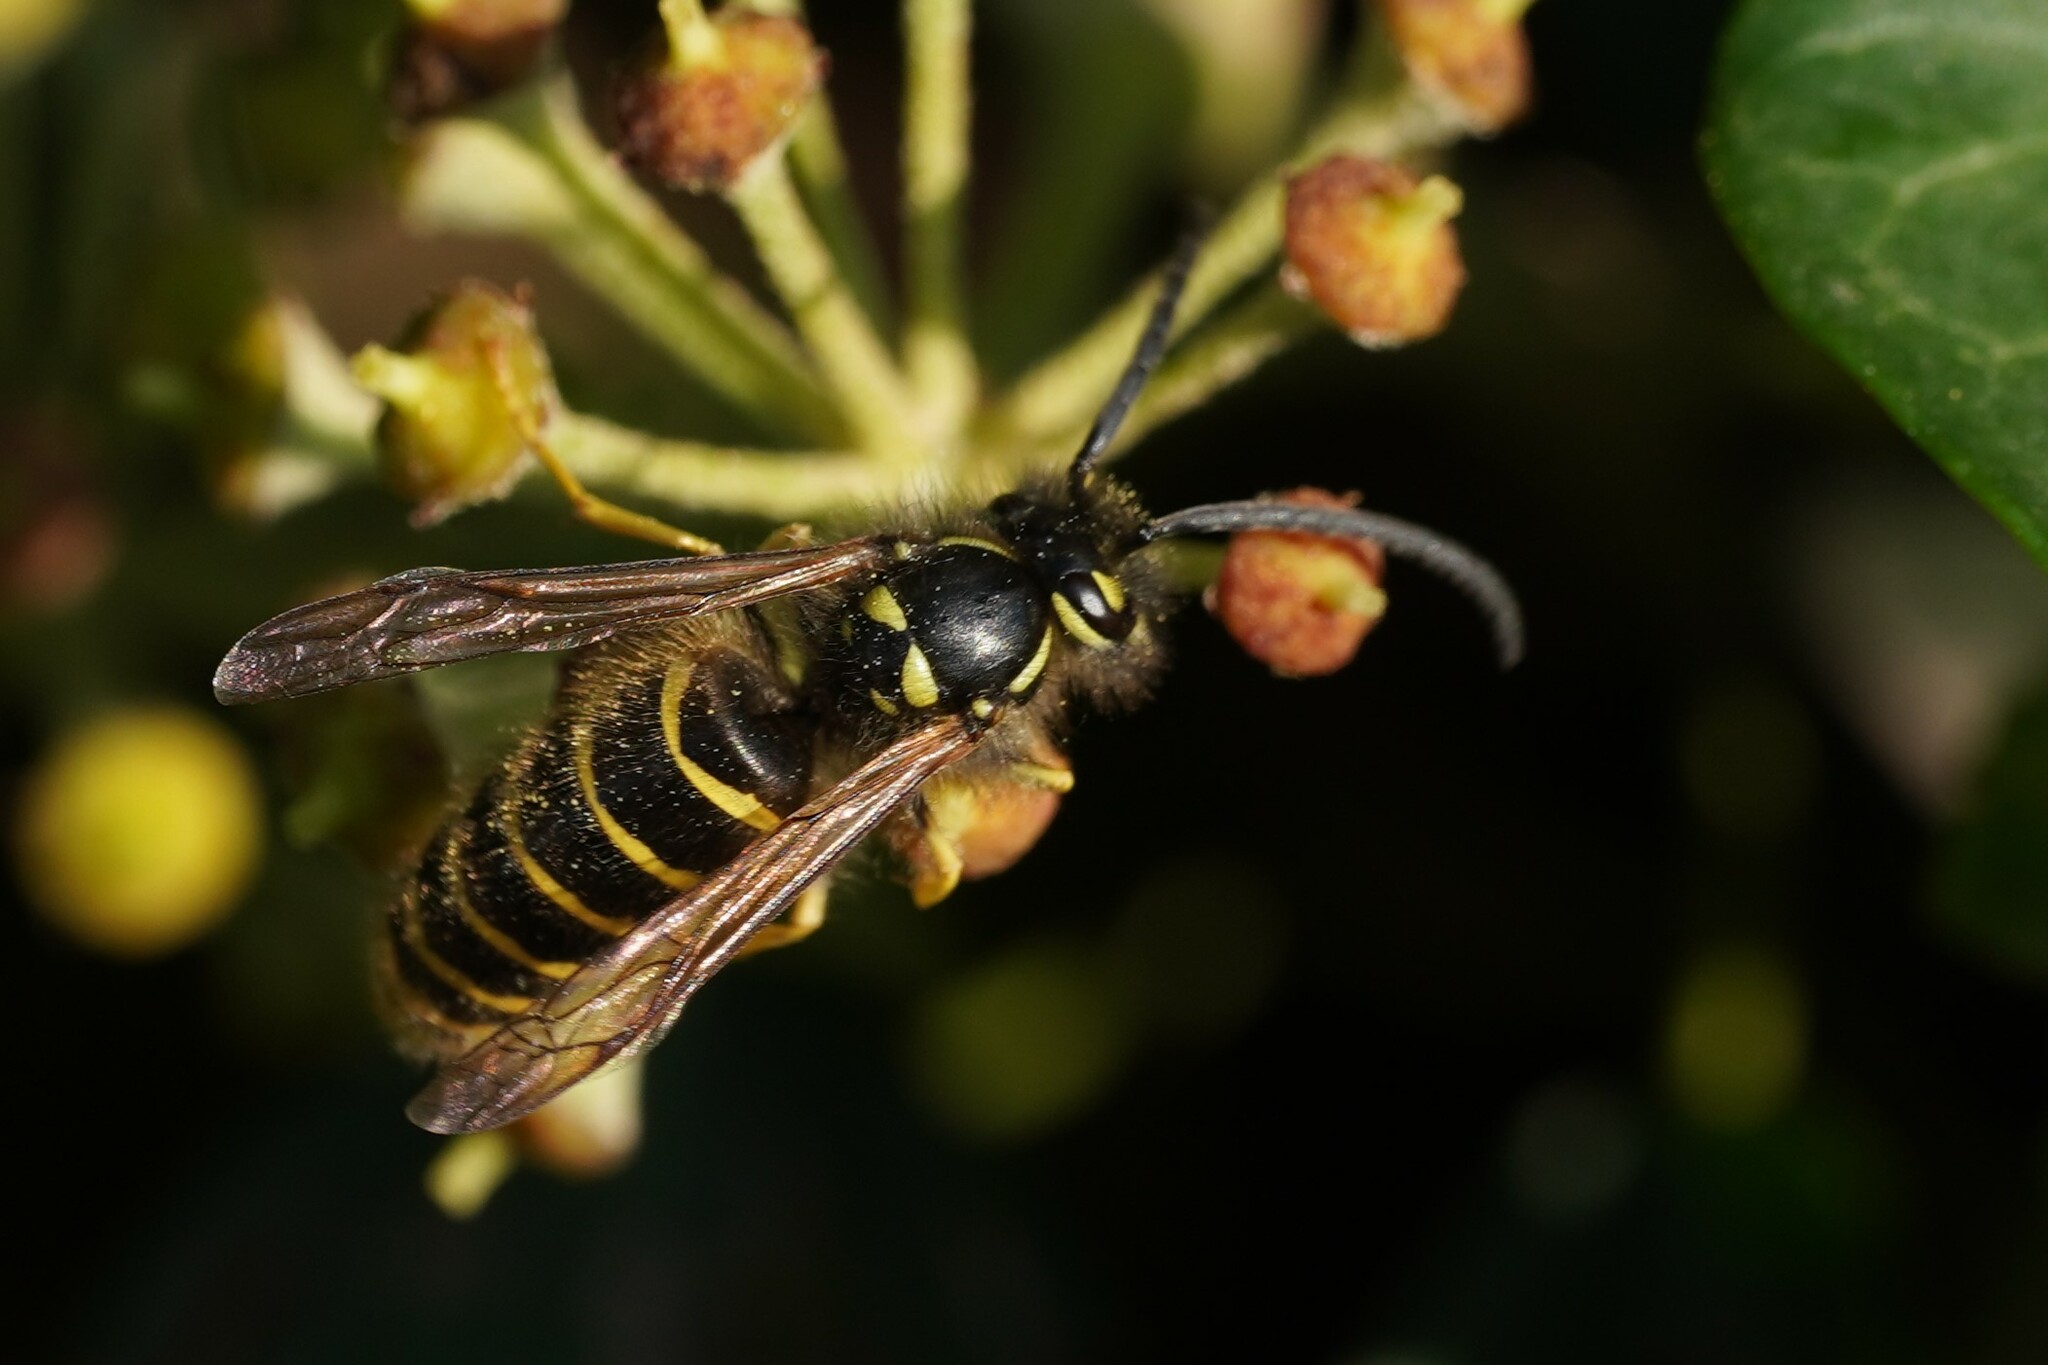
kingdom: Animalia
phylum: Arthropoda
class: Insecta
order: Hymenoptera
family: Vespidae
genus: Vespula
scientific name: Vespula vulgaris
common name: Common wasp
